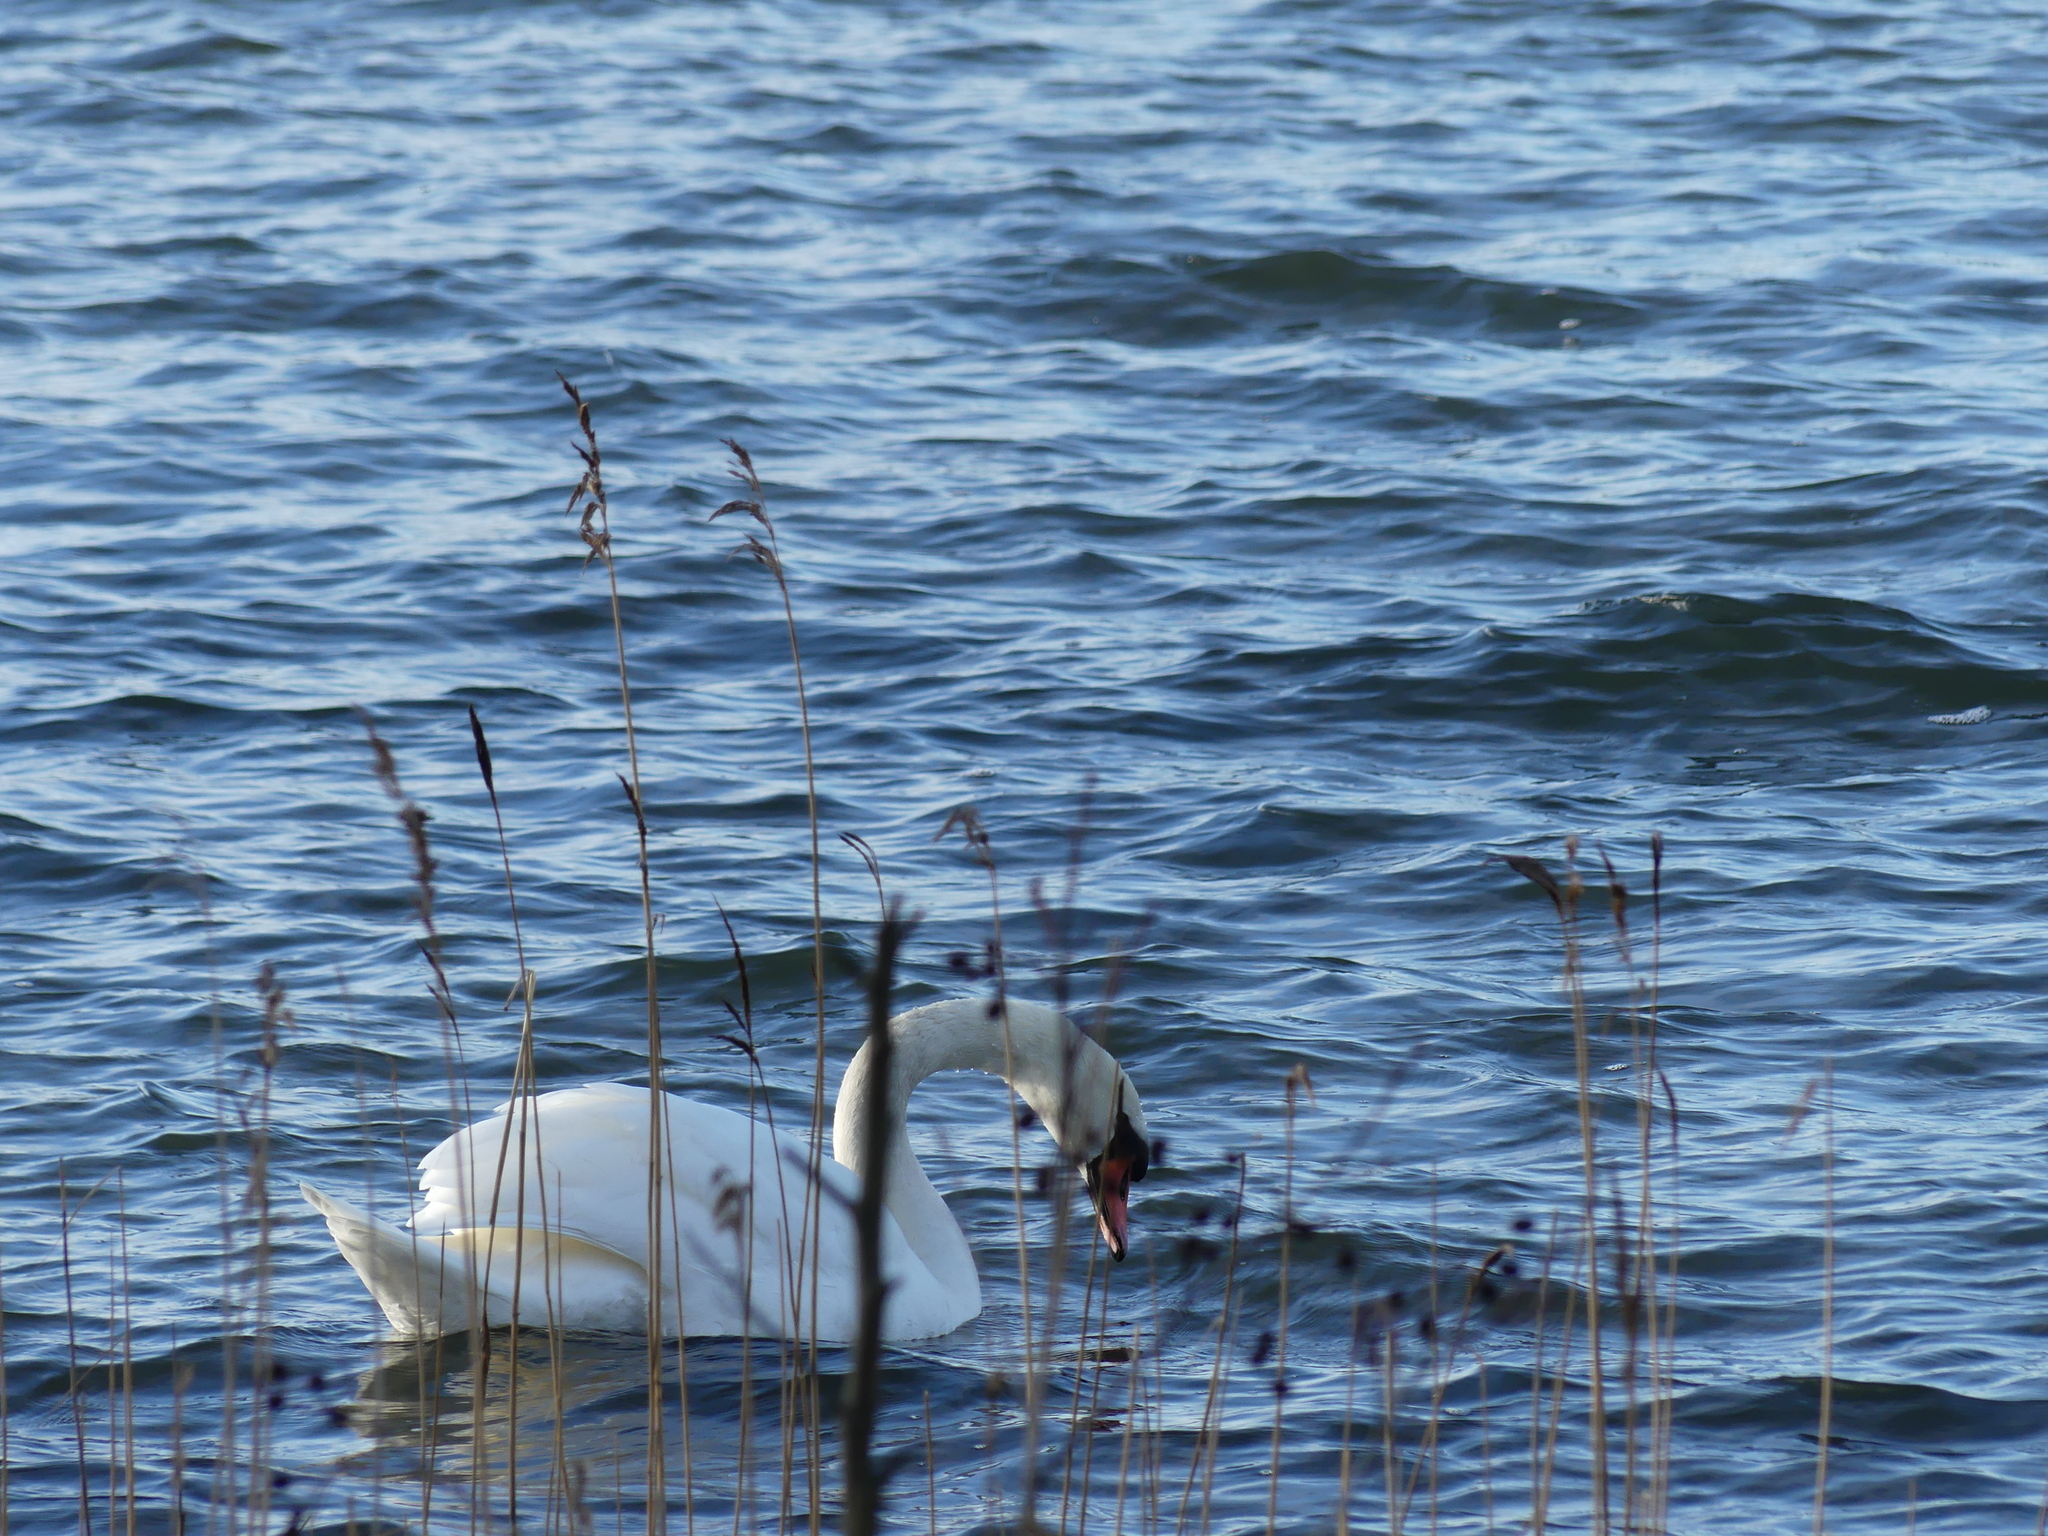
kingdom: Animalia
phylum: Chordata
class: Aves
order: Anseriformes
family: Anatidae
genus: Cygnus
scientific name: Cygnus olor
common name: Mute swan
